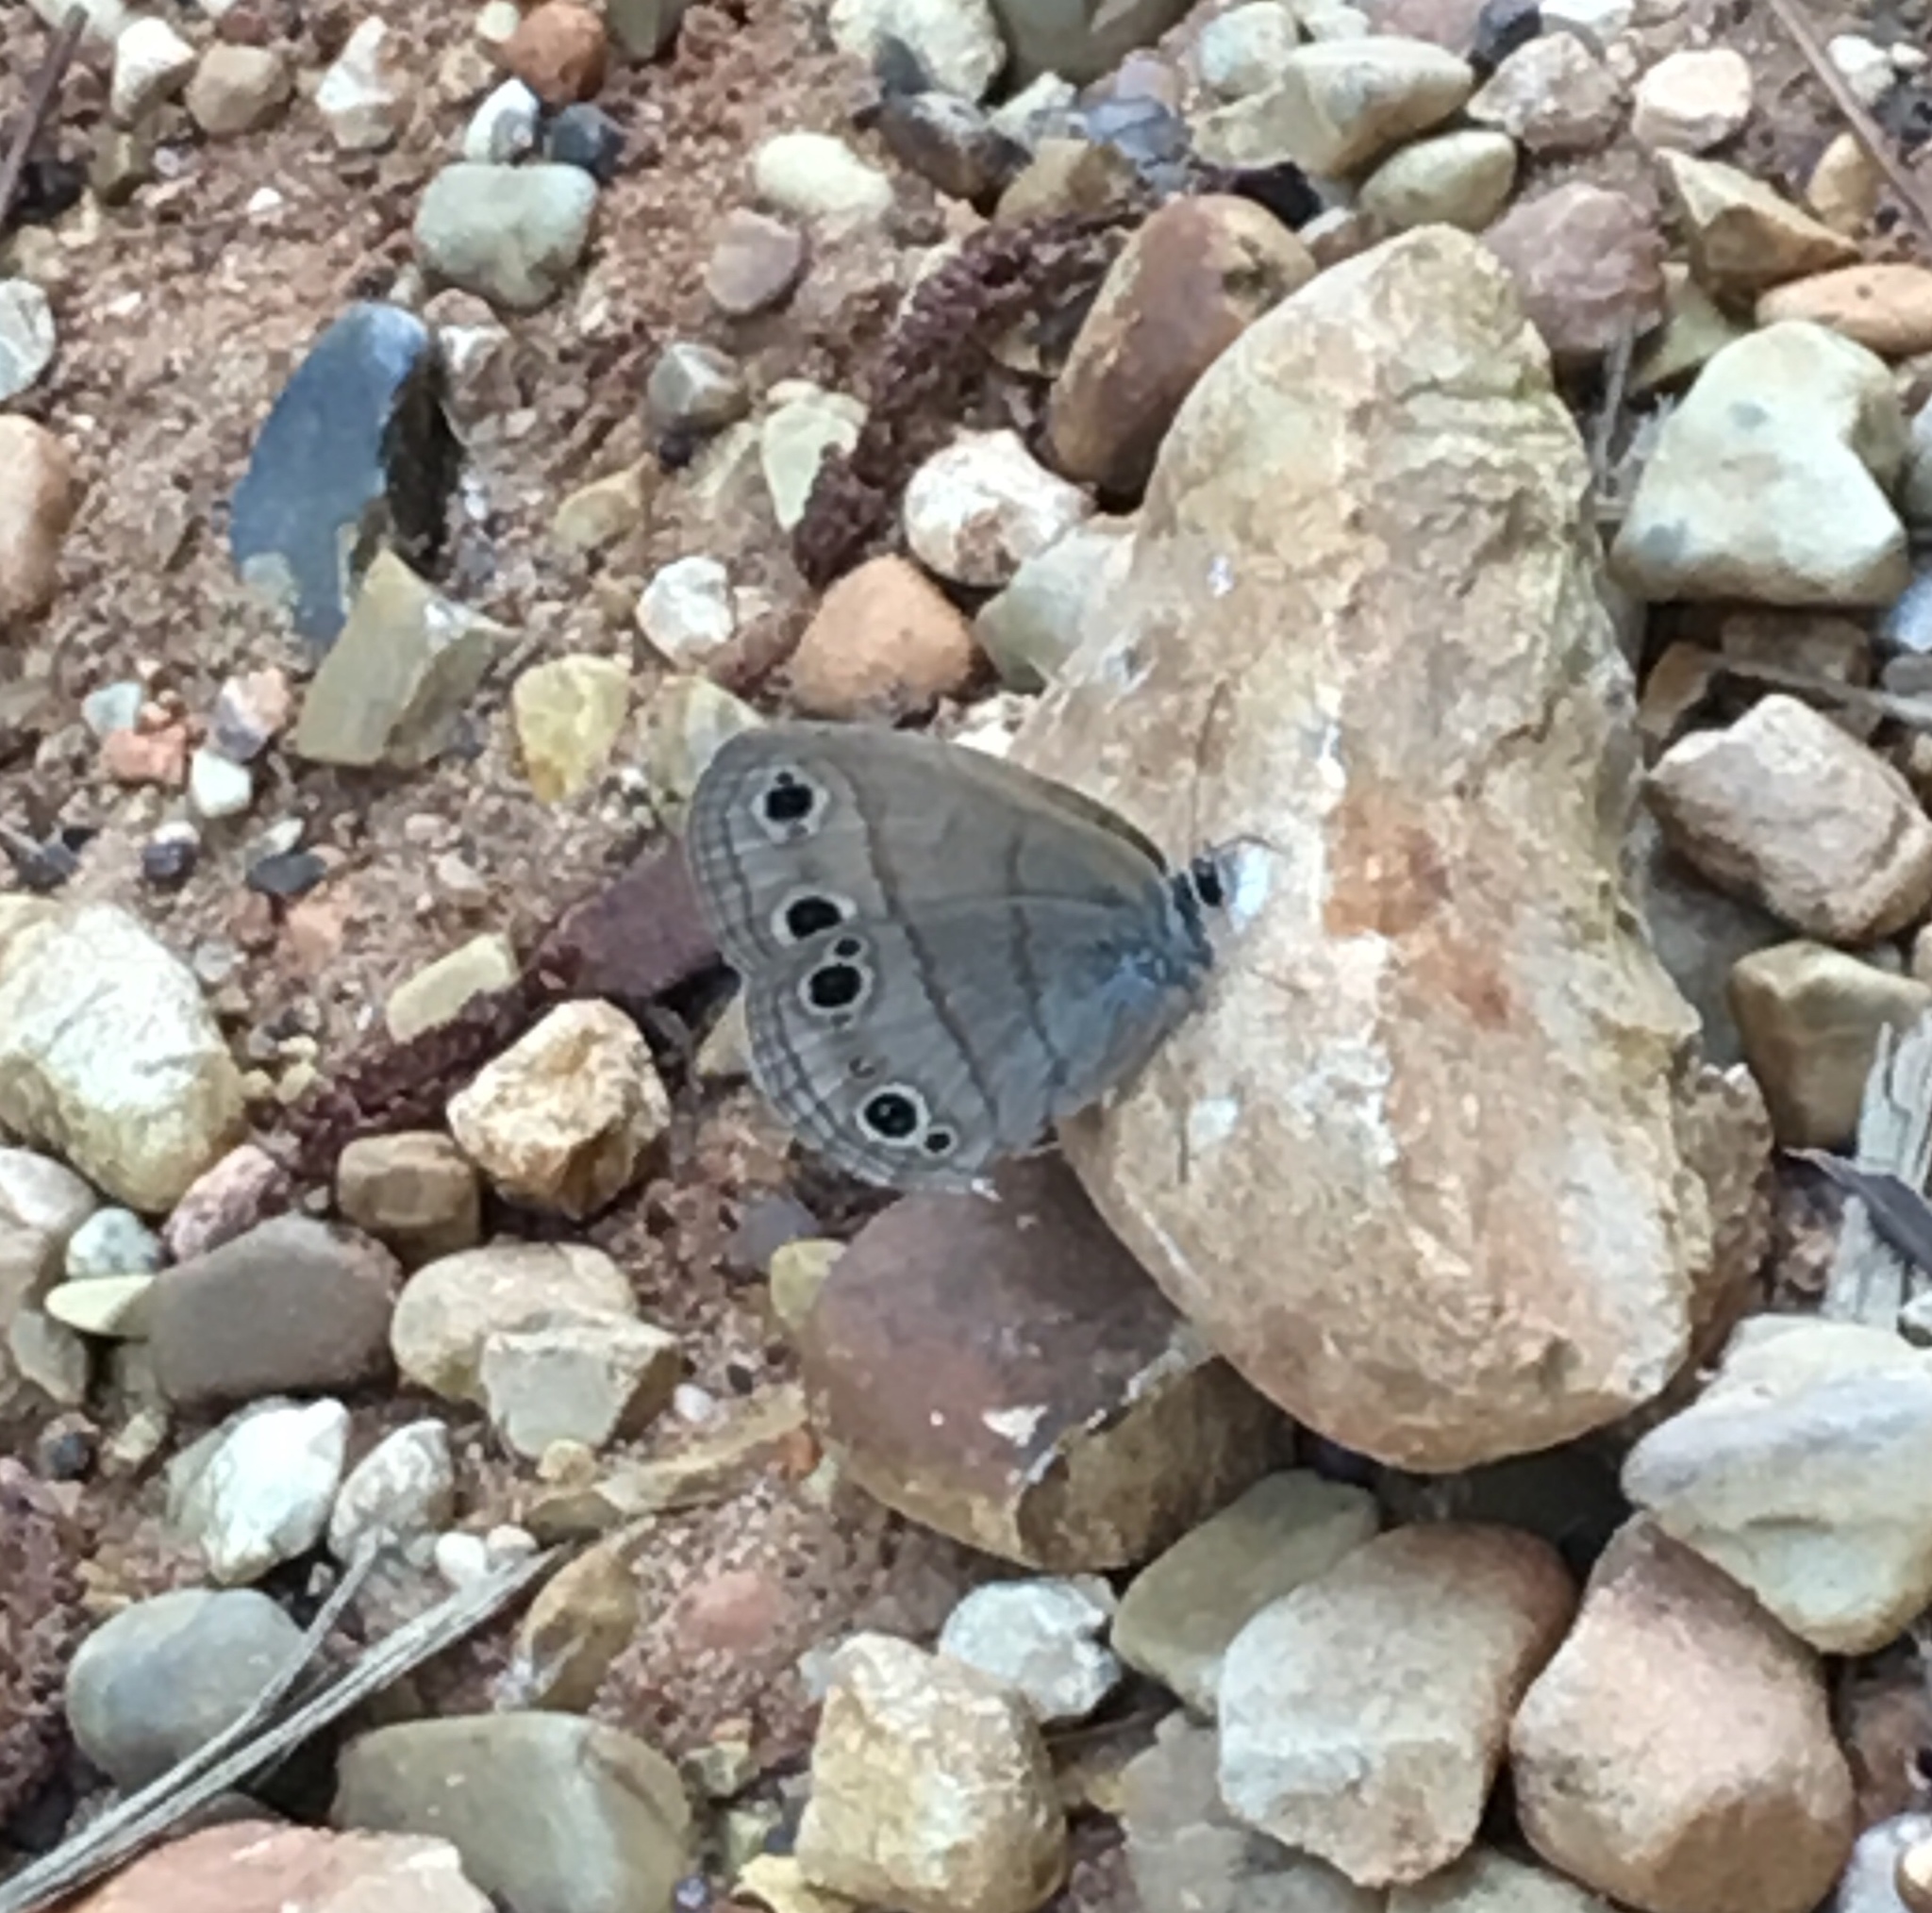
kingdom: Animalia
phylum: Arthropoda
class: Insecta
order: Lepidoptera
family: Nymphalidae
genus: Euptychia
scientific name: Euptychia cymela
